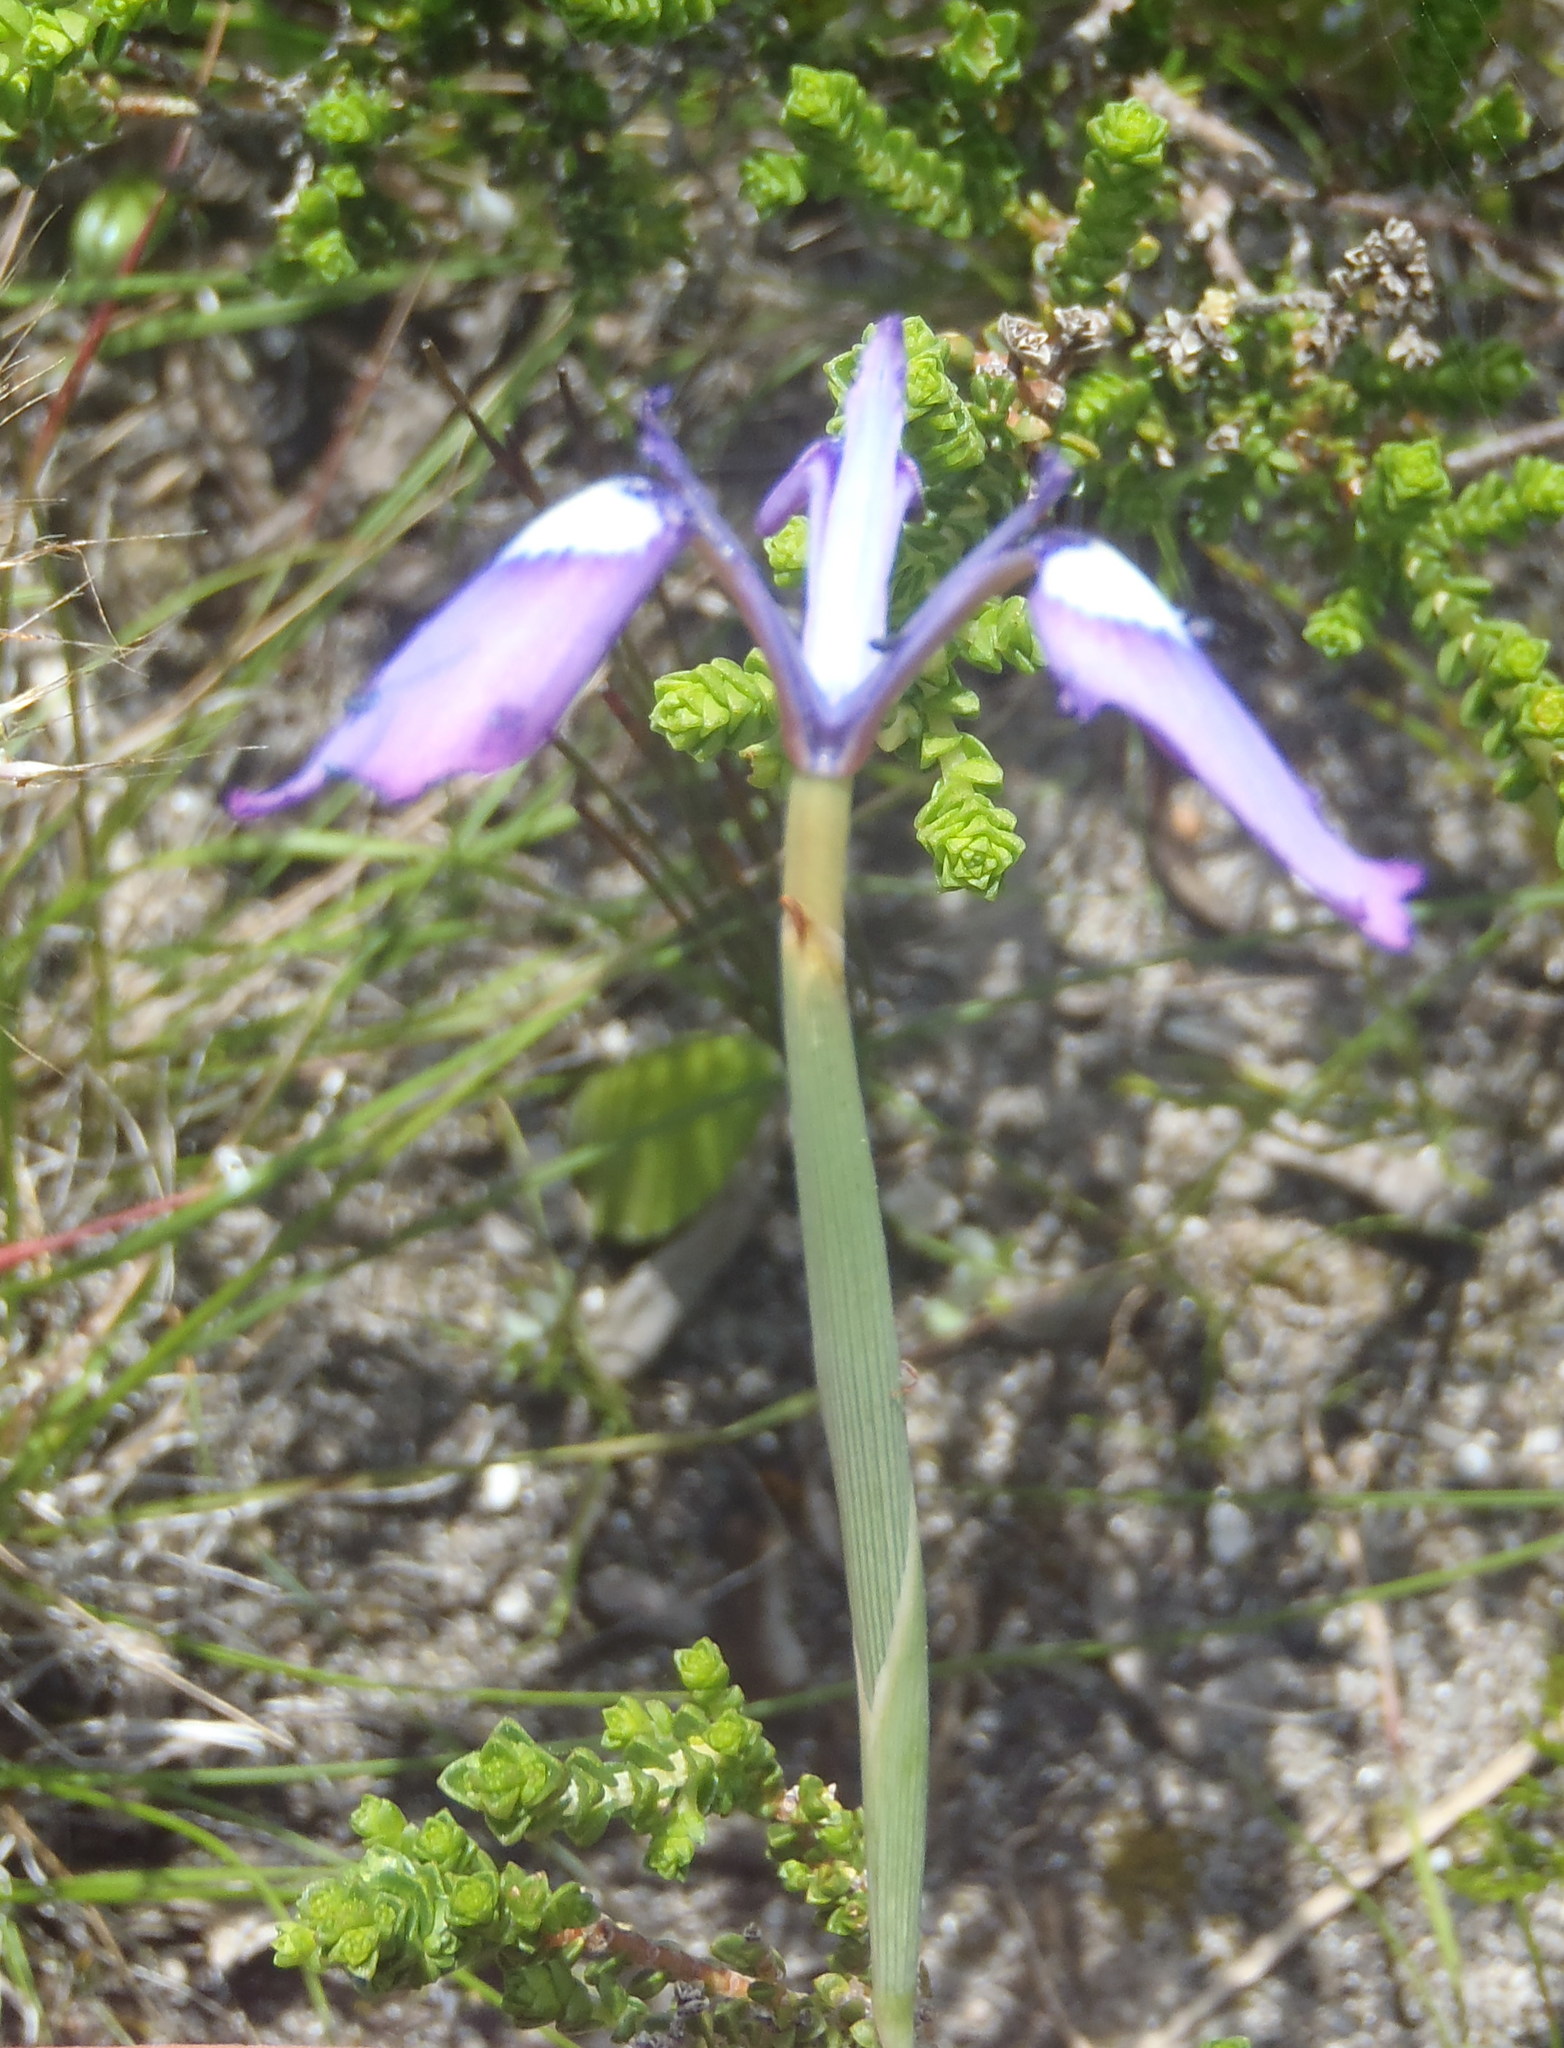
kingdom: Plantae
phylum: Tracheophyta
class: Liliopsida
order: Asparagales
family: Iridaceae
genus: Moraea
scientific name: Moraea tripetala
